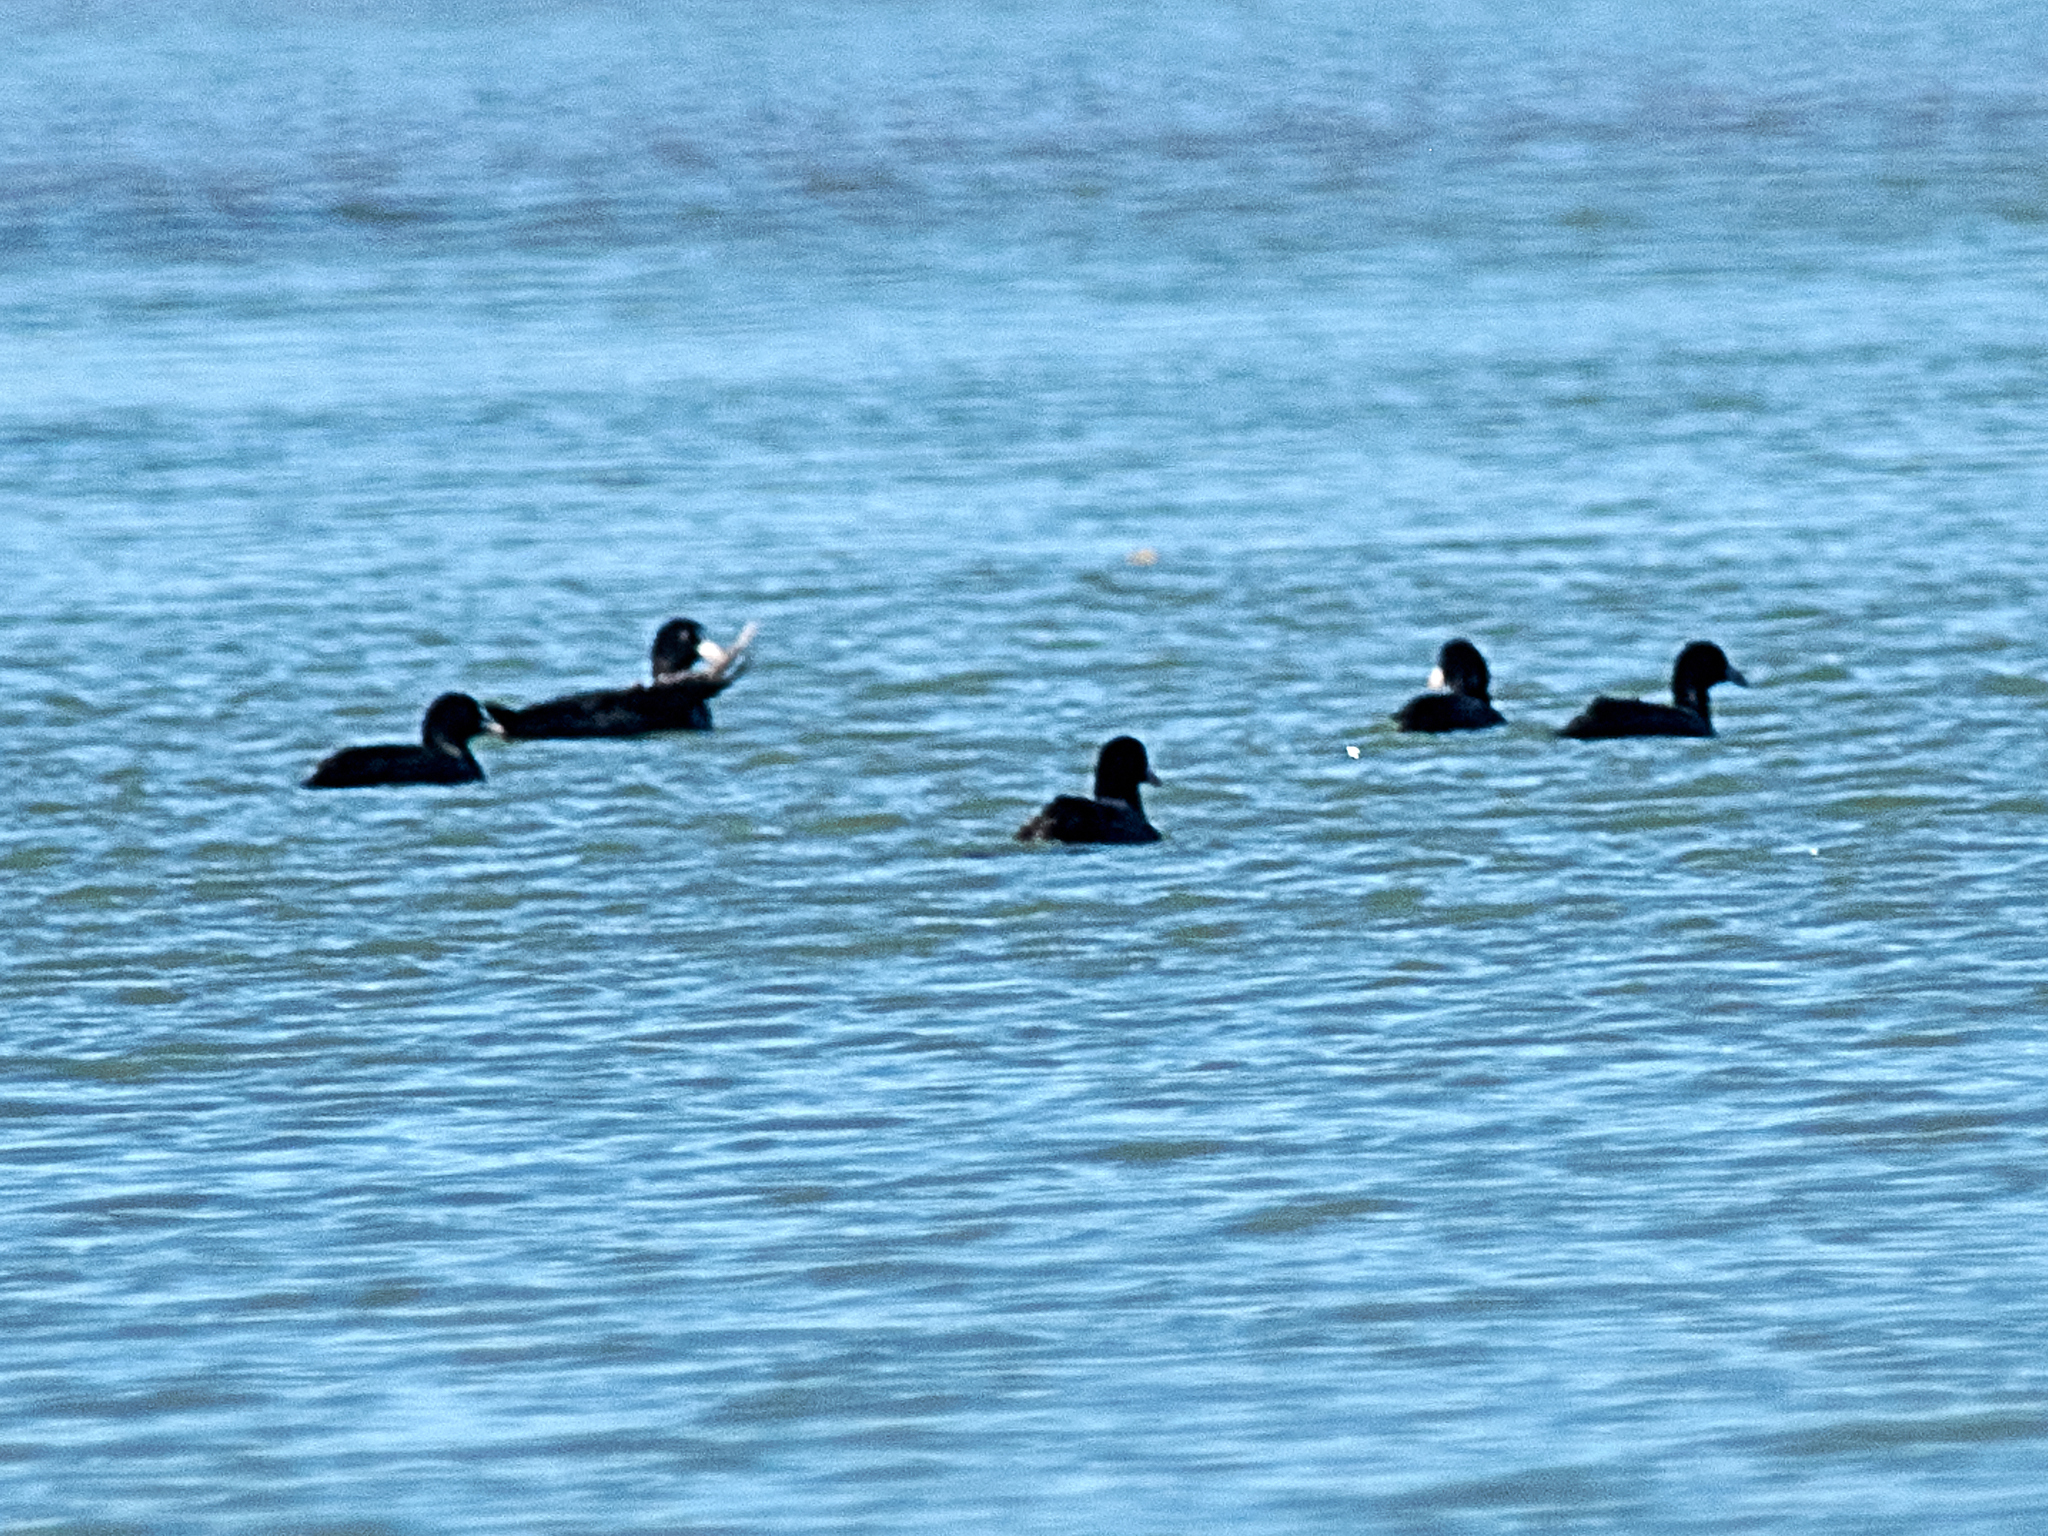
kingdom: Animalia
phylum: Chordata
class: Aves
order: Gruiformes
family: Rallidae
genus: Fulica
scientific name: Fulica atra
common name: Eurasian coot
